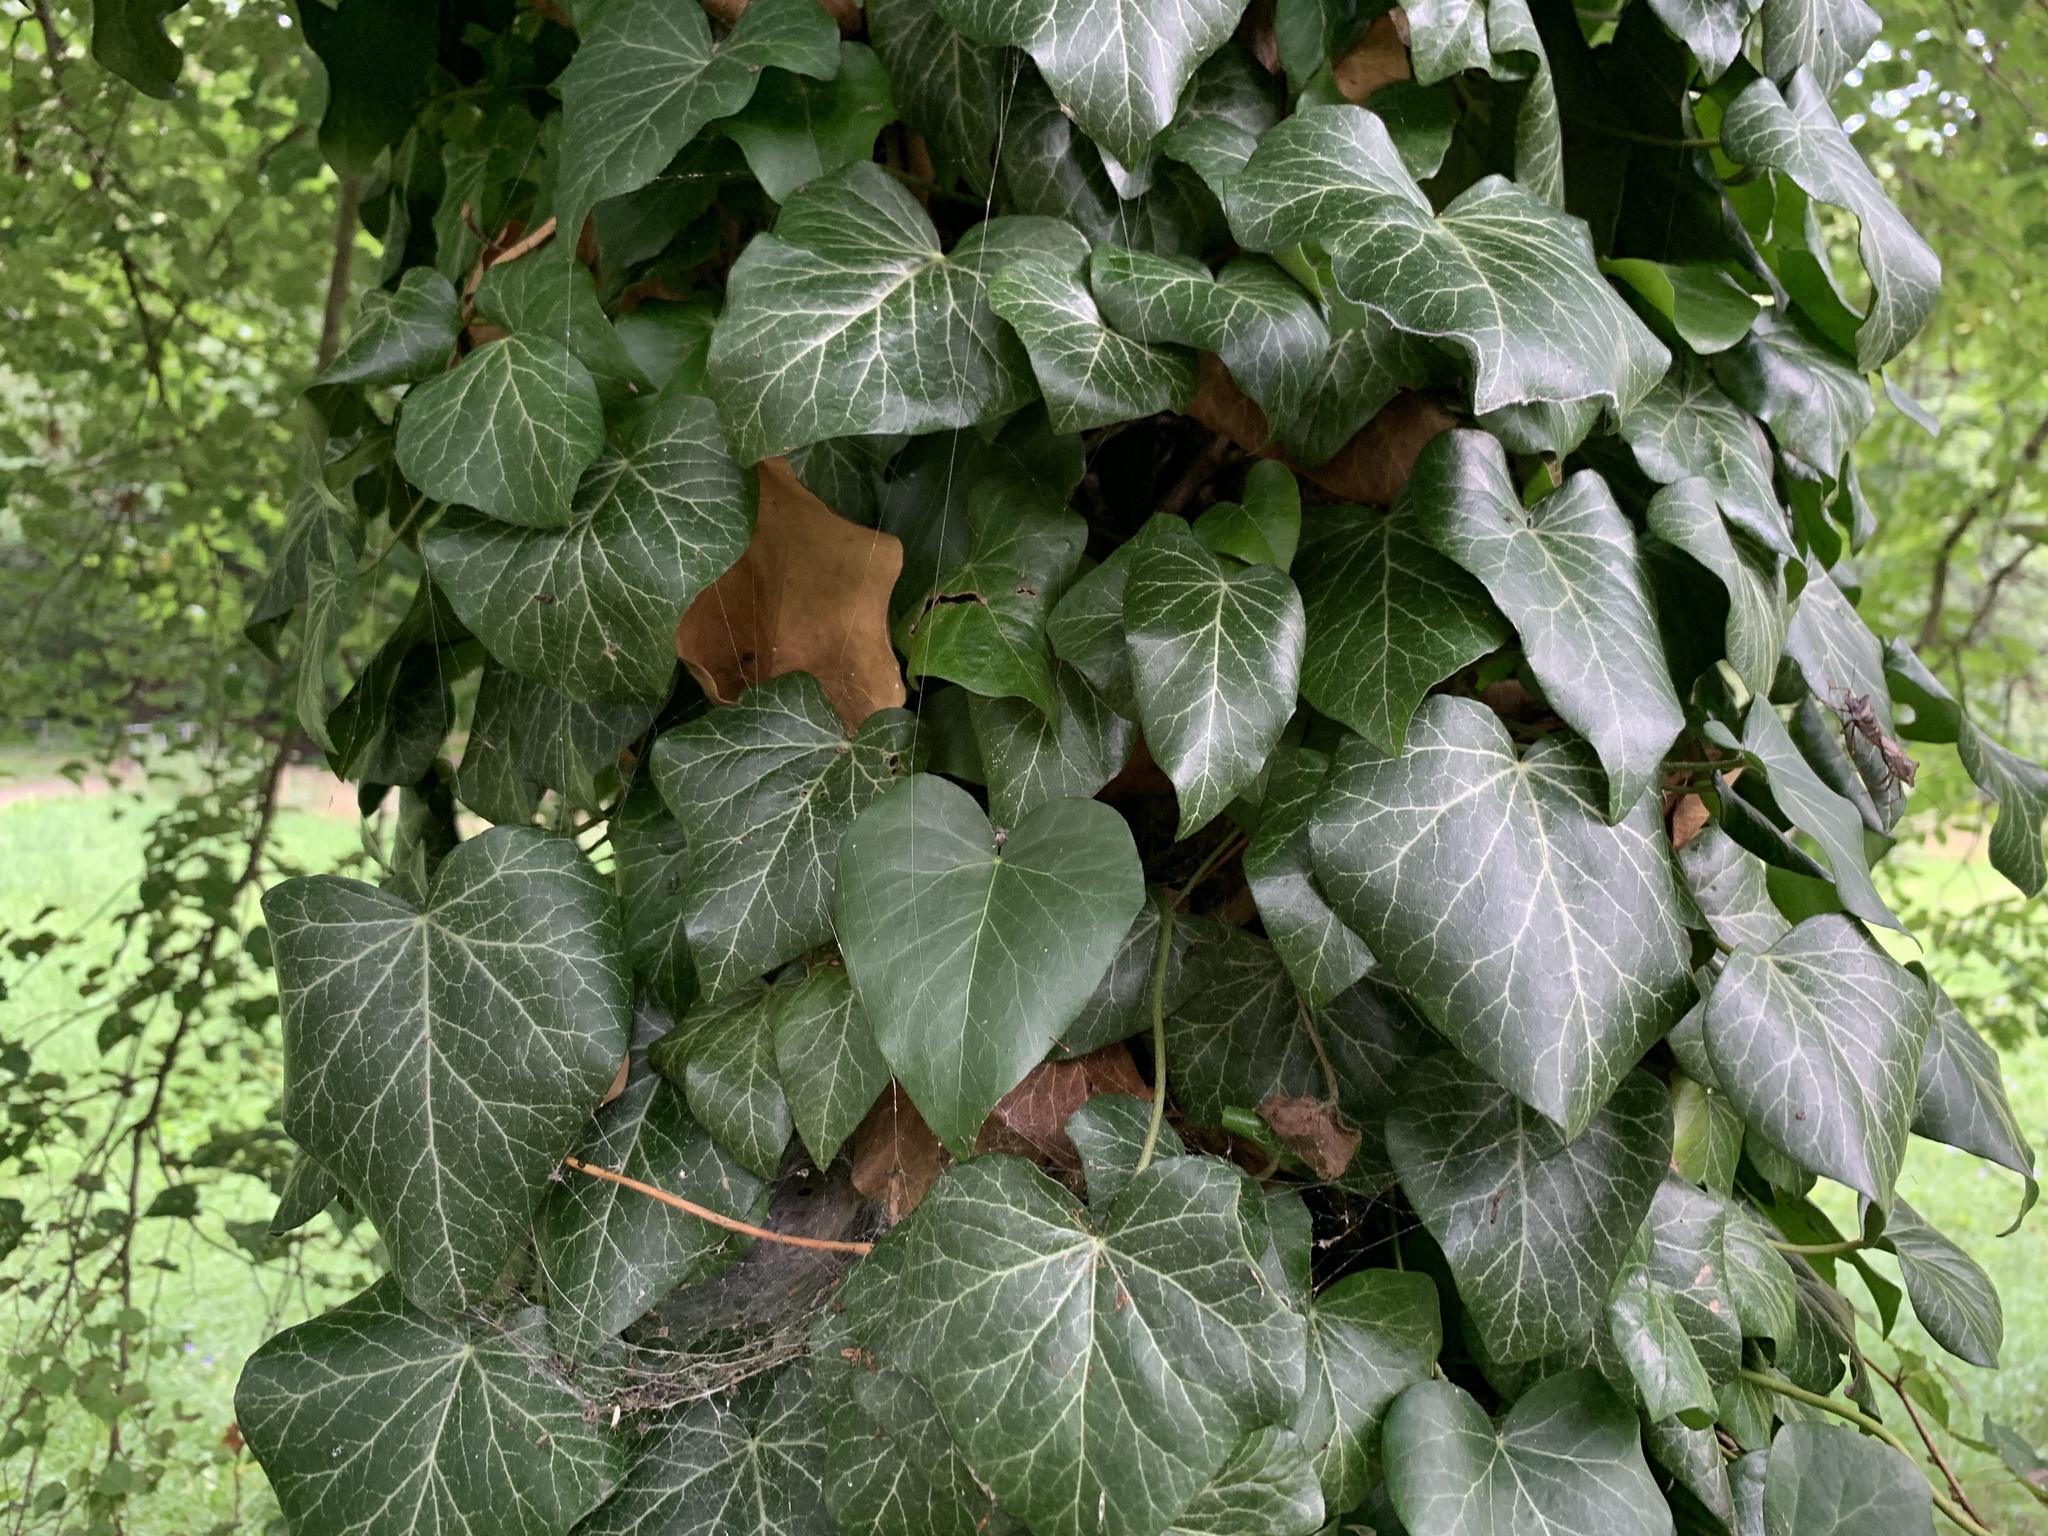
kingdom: Plantae
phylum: Tracheophyta
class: Magnoliopsida
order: Apiales
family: Araliaceae
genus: Hedera
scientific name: Hedera helix
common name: Ivy
